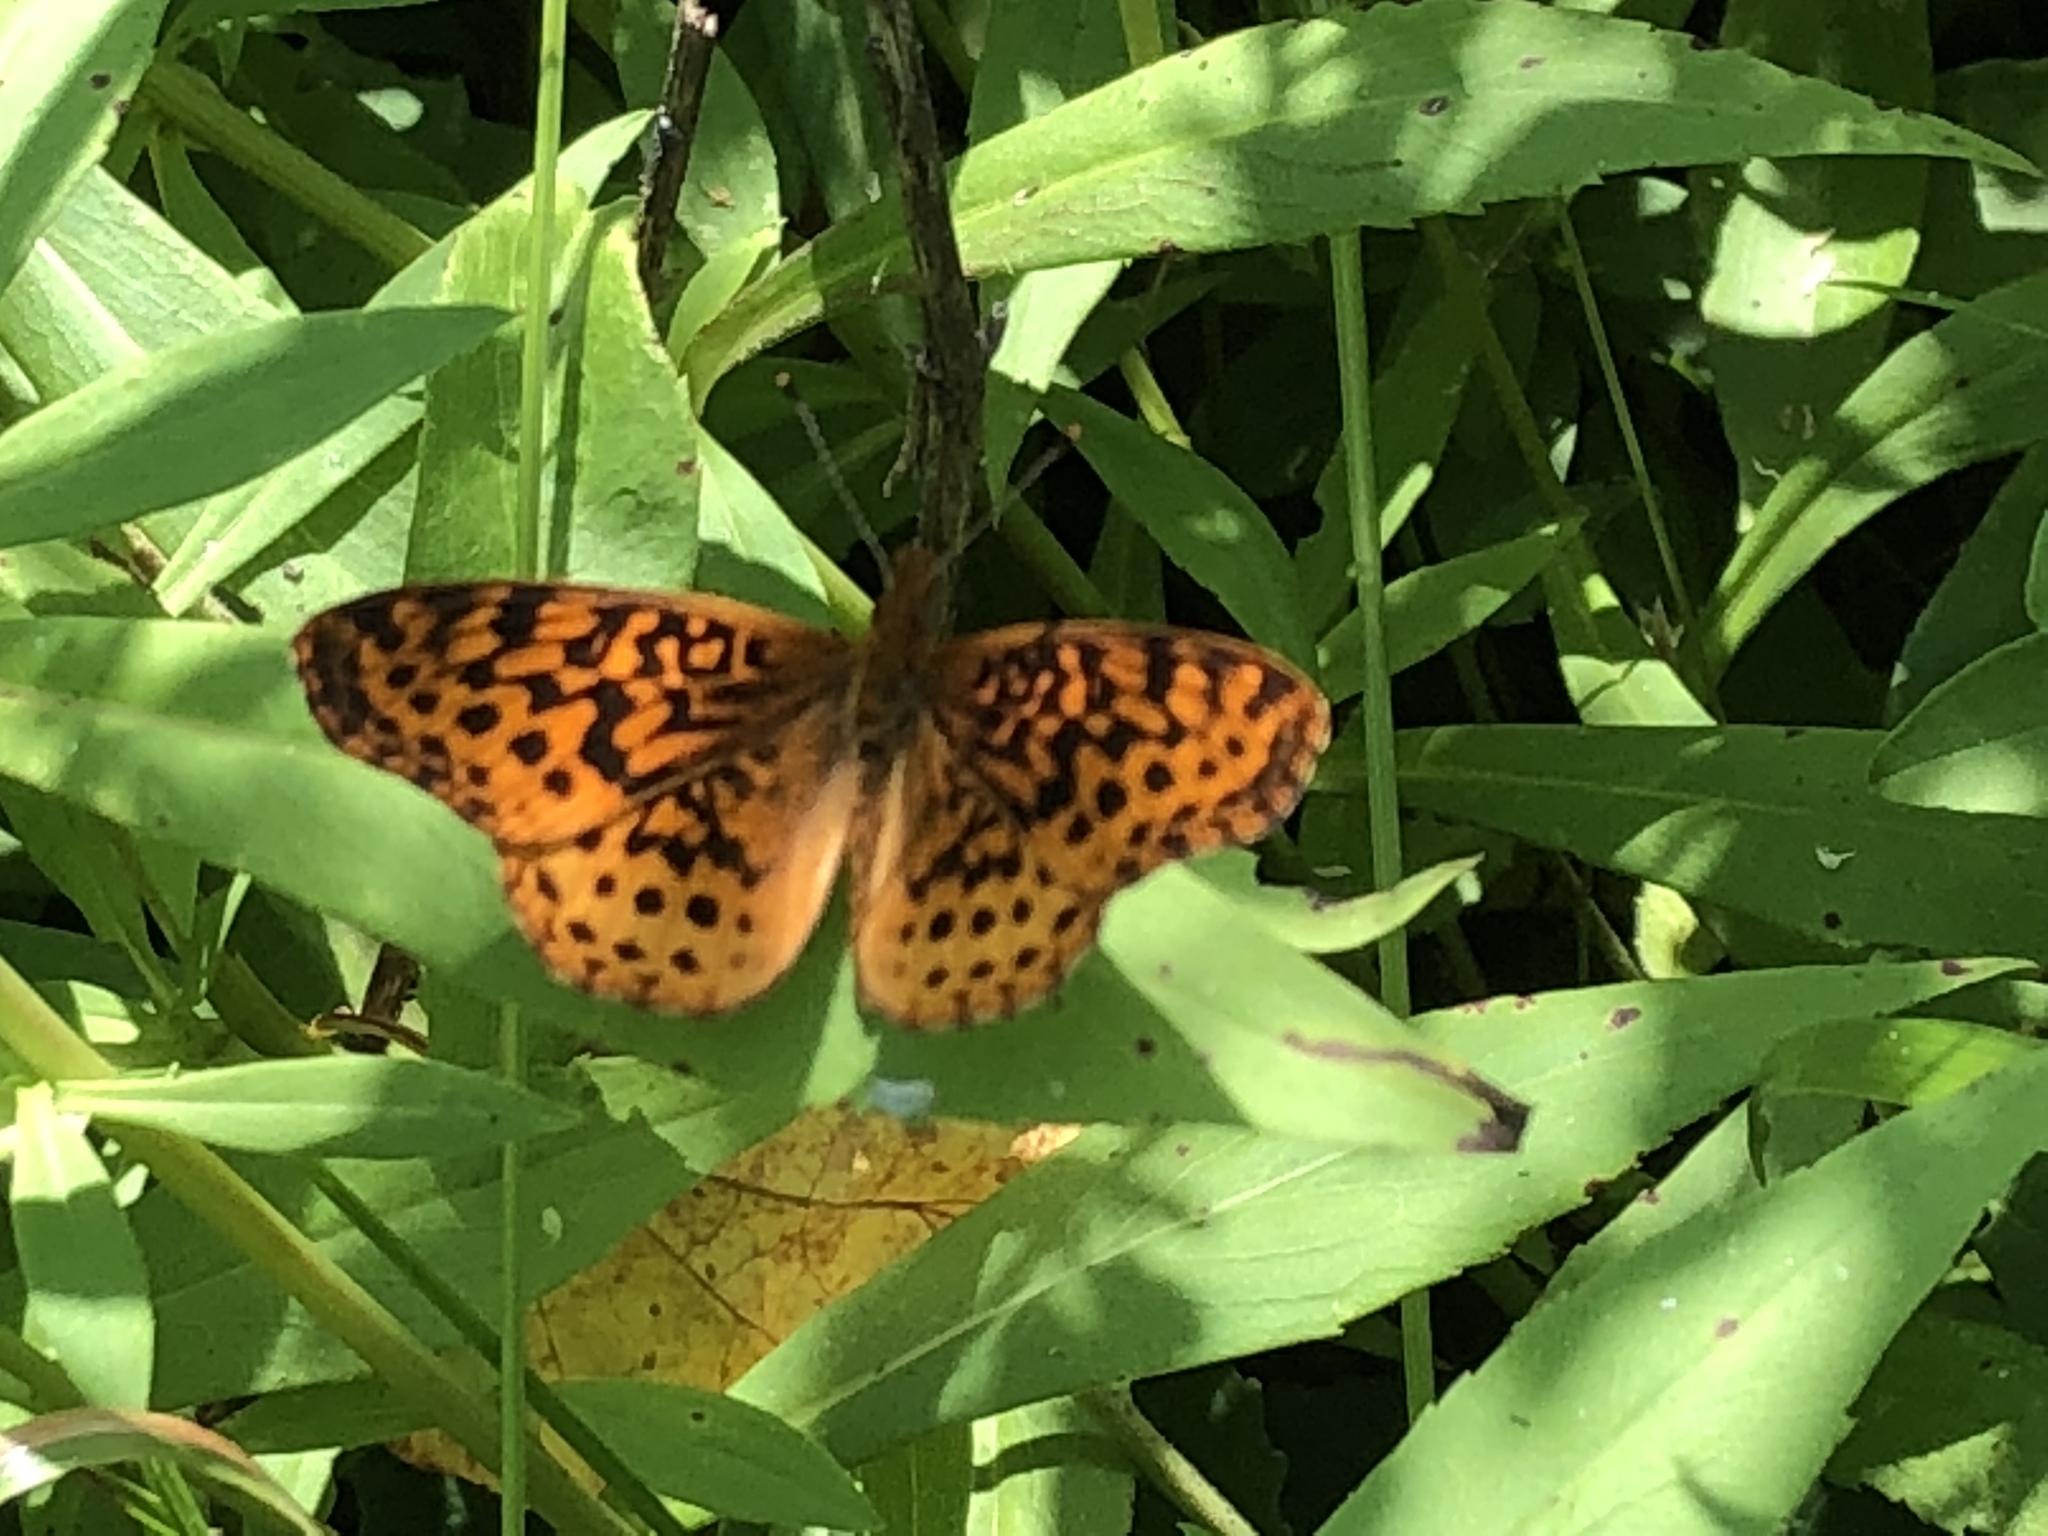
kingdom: Animalia
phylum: Arthropoda
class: Insecta
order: Lepidoptera
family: Nymphalidae
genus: Clossiana
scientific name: Clossiana toddi
